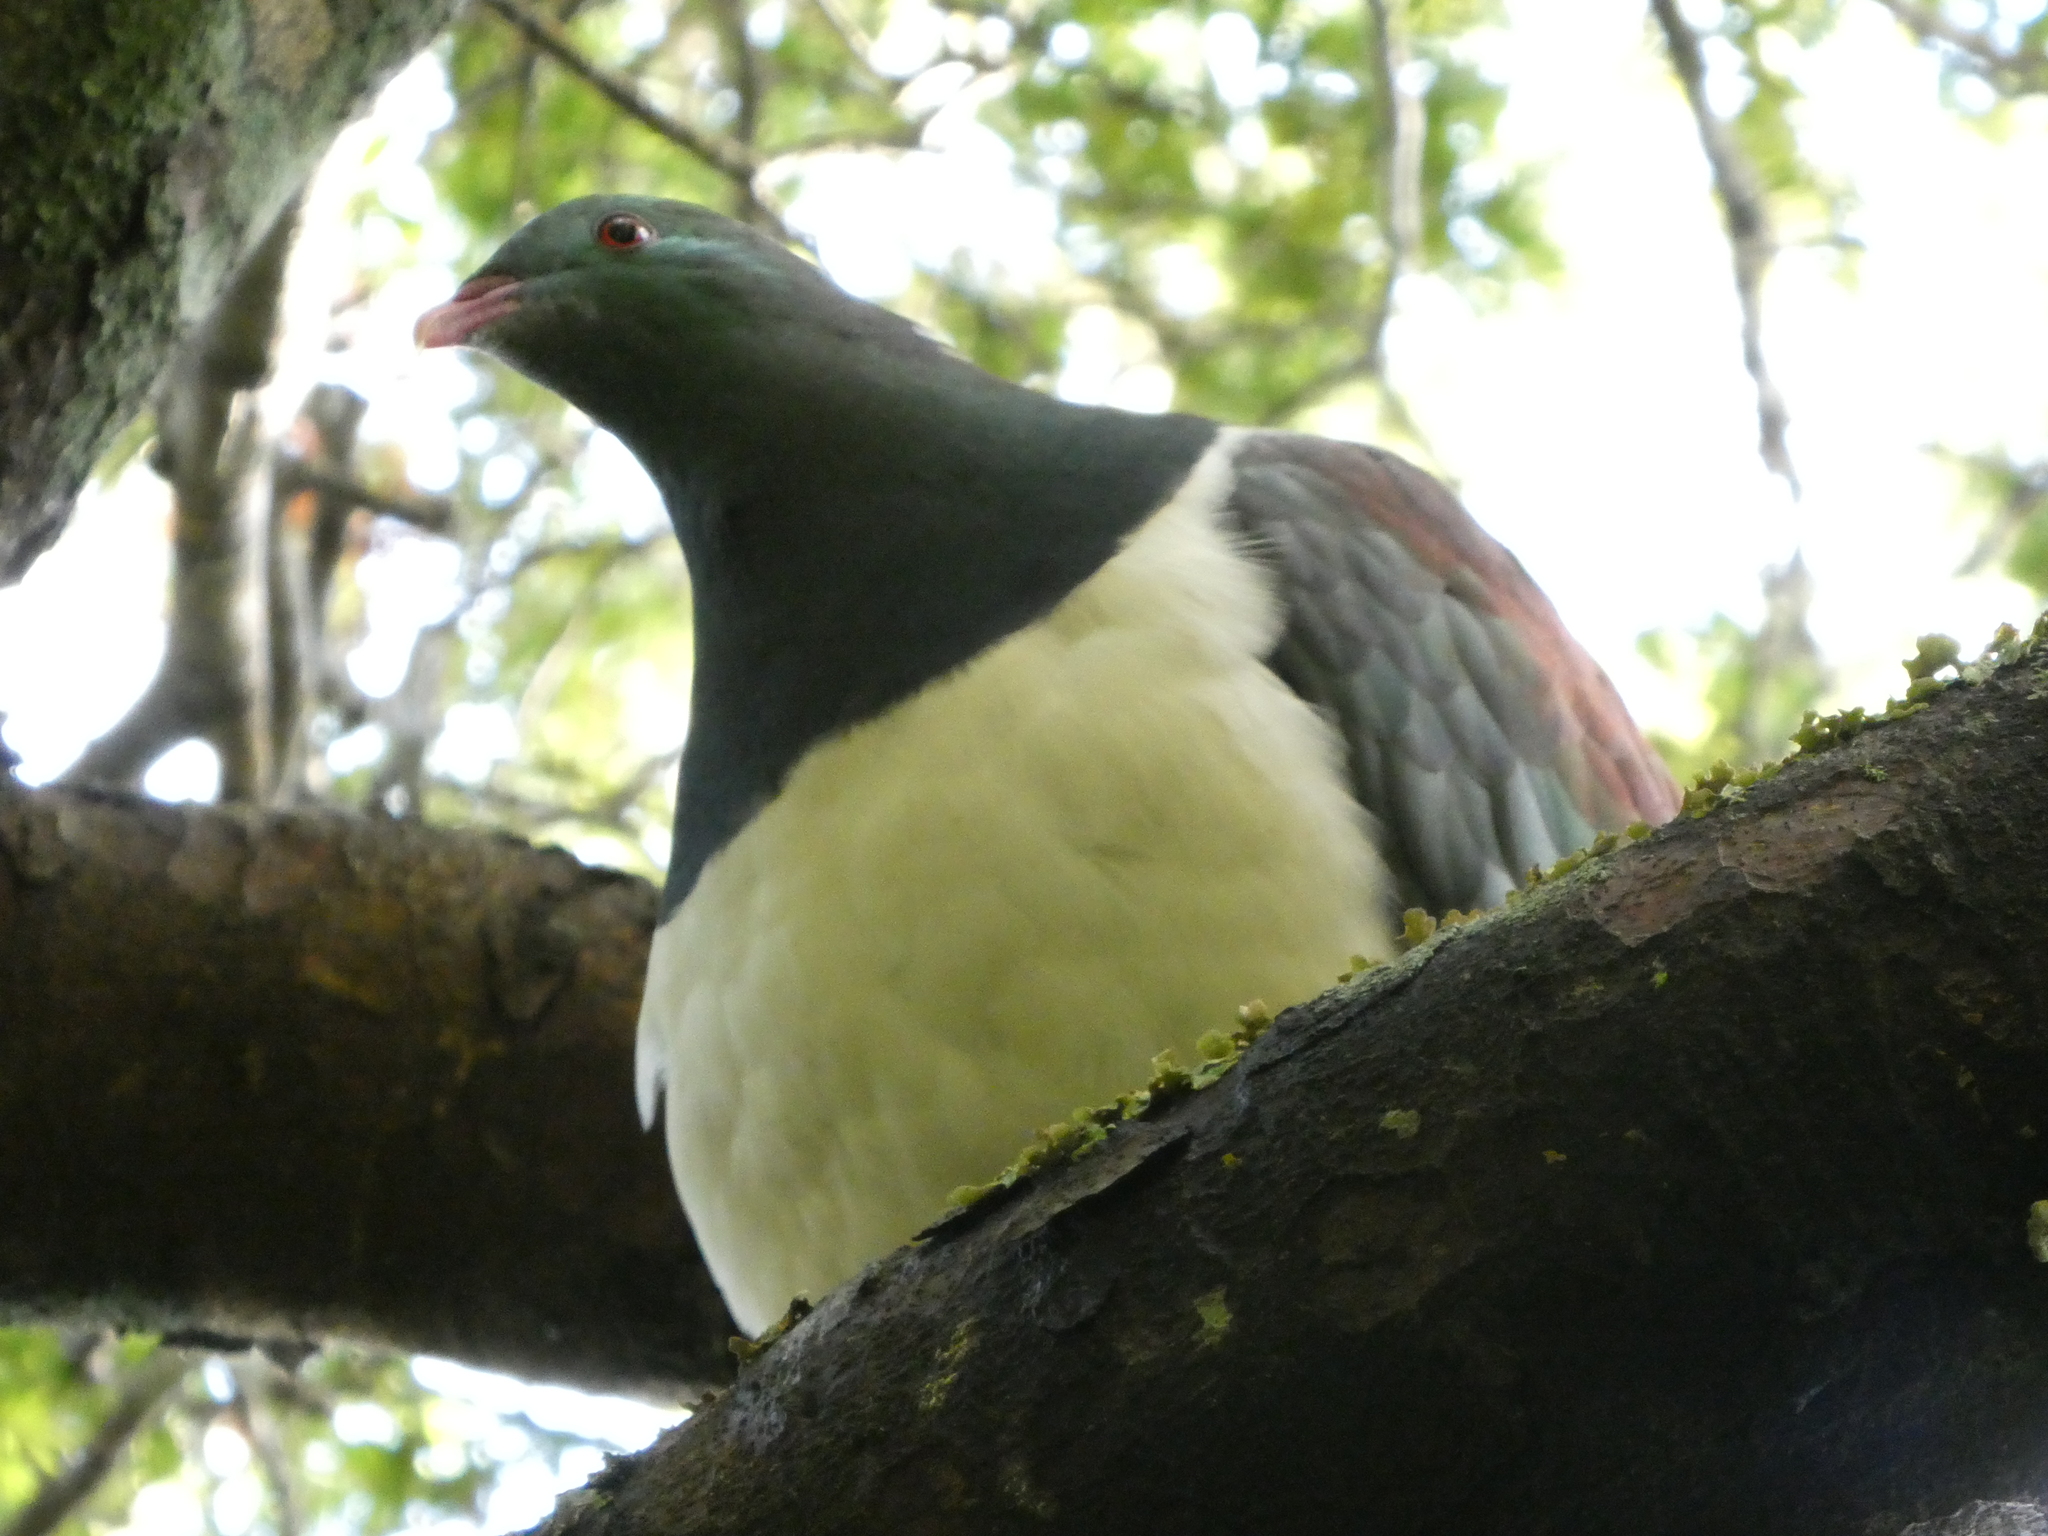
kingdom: Animalia
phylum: Chordata
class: Aves
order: Columbiformes
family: Columbidae
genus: Hemiphaga
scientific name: Hemiphaga novaeseelandiae
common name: New zealand pigeon
